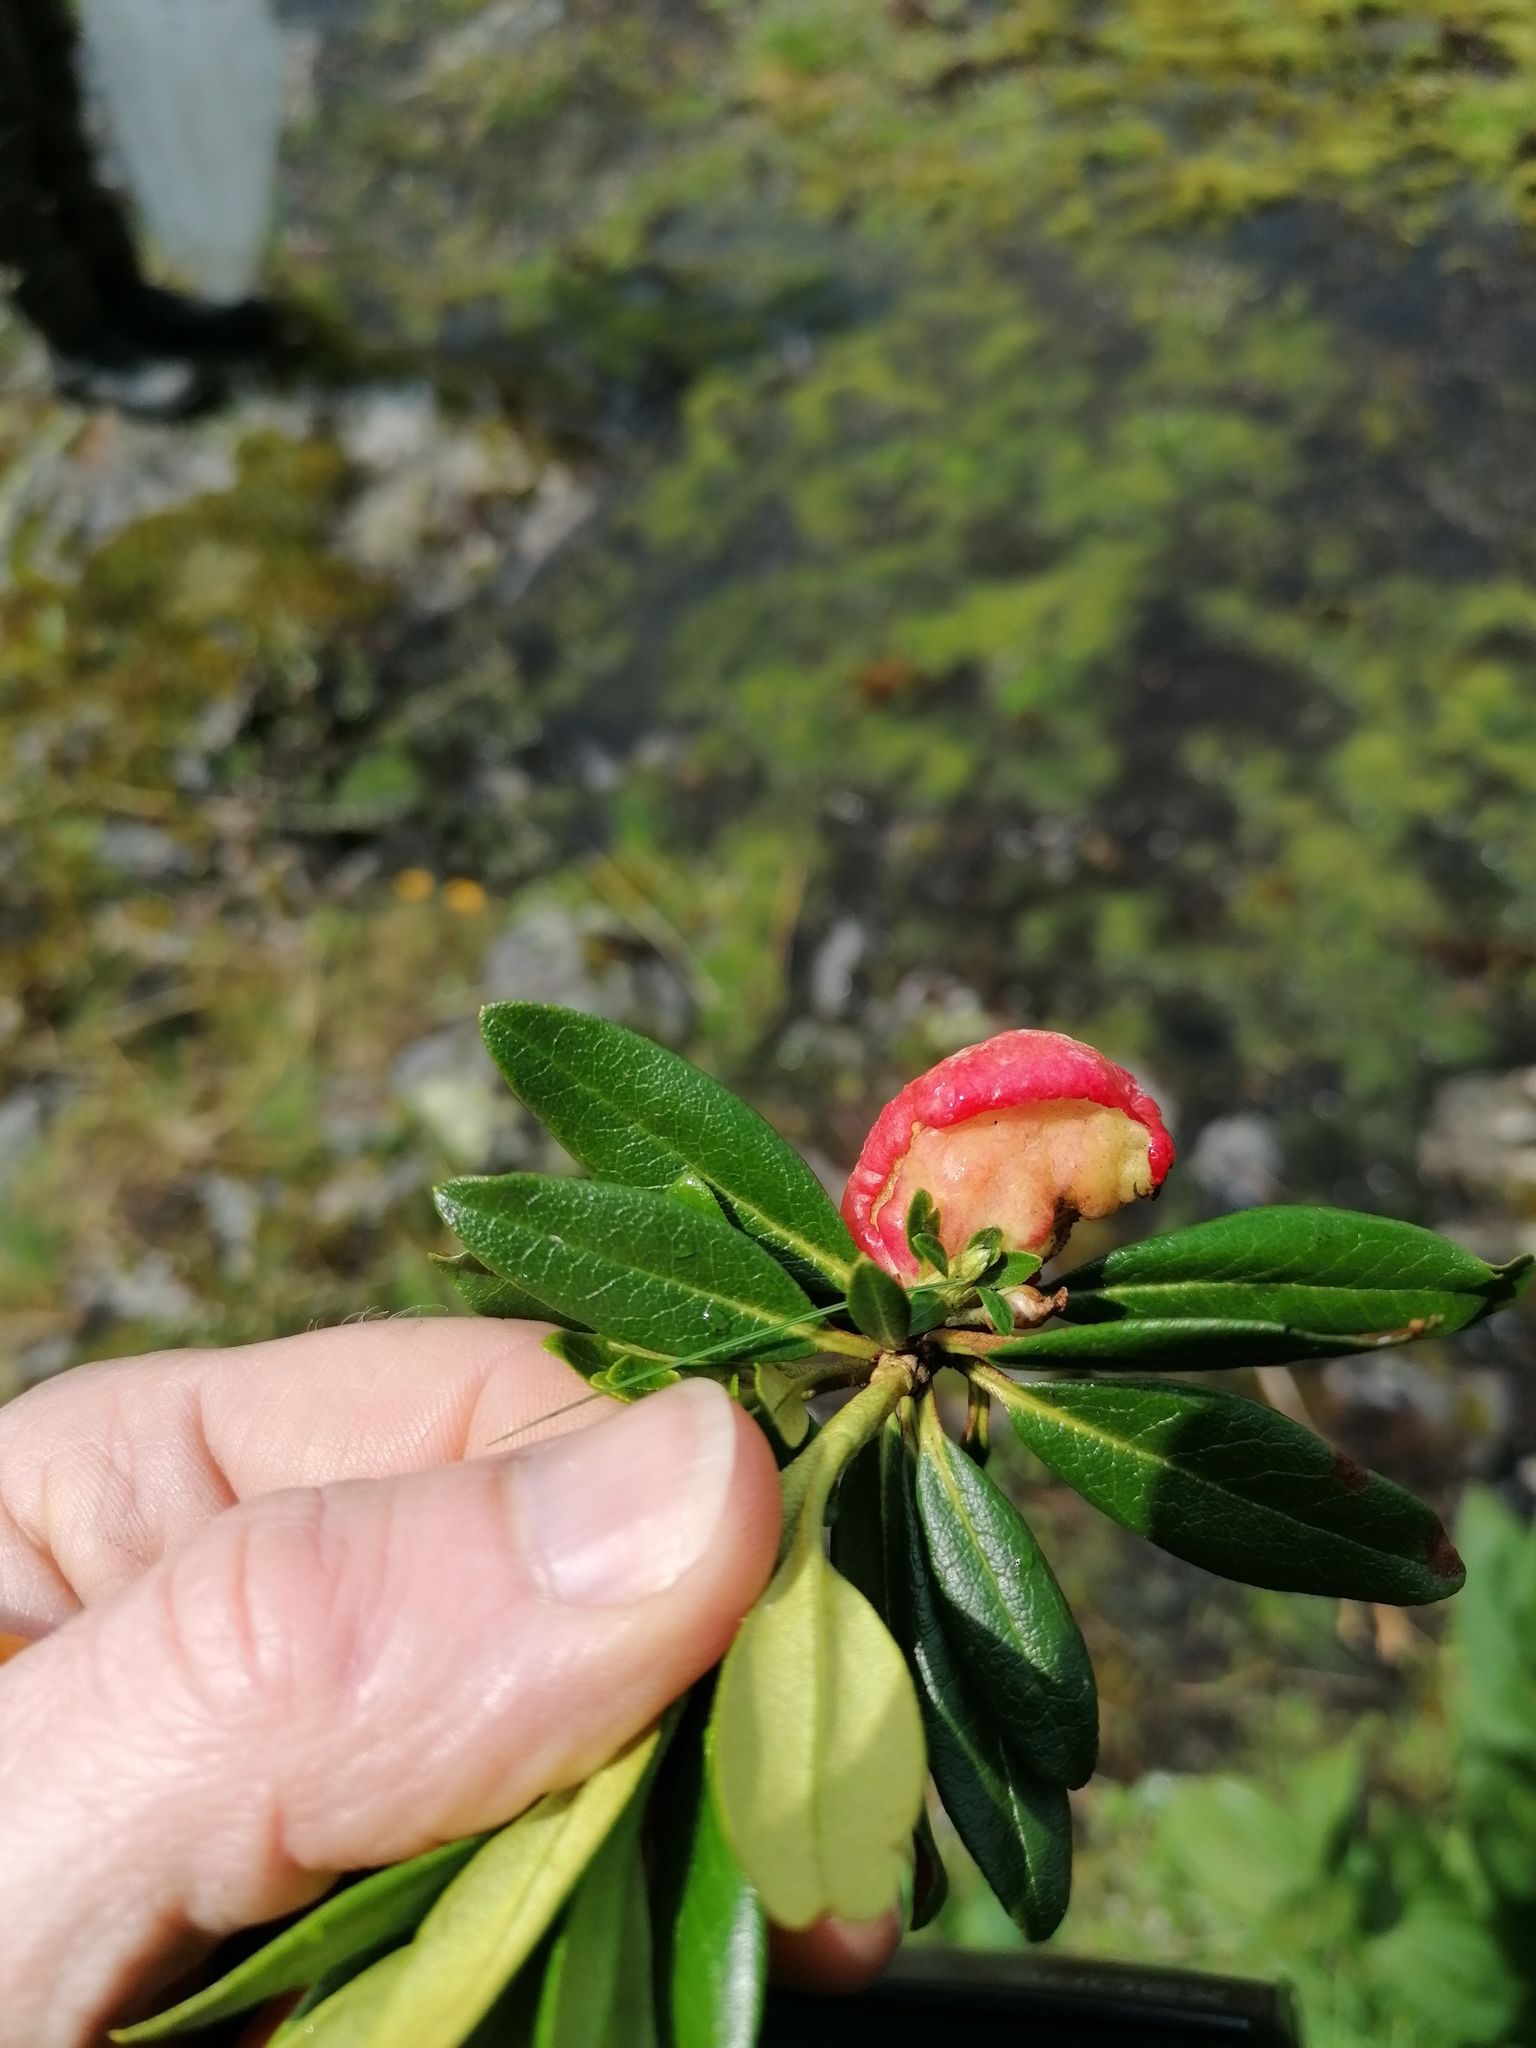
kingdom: Fungi
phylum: Basidiomycota
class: Exobasidiomycetes
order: Exobasidiales
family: Exobasidiaceae
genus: Exobasidium
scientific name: Exobasidium rhododendri
